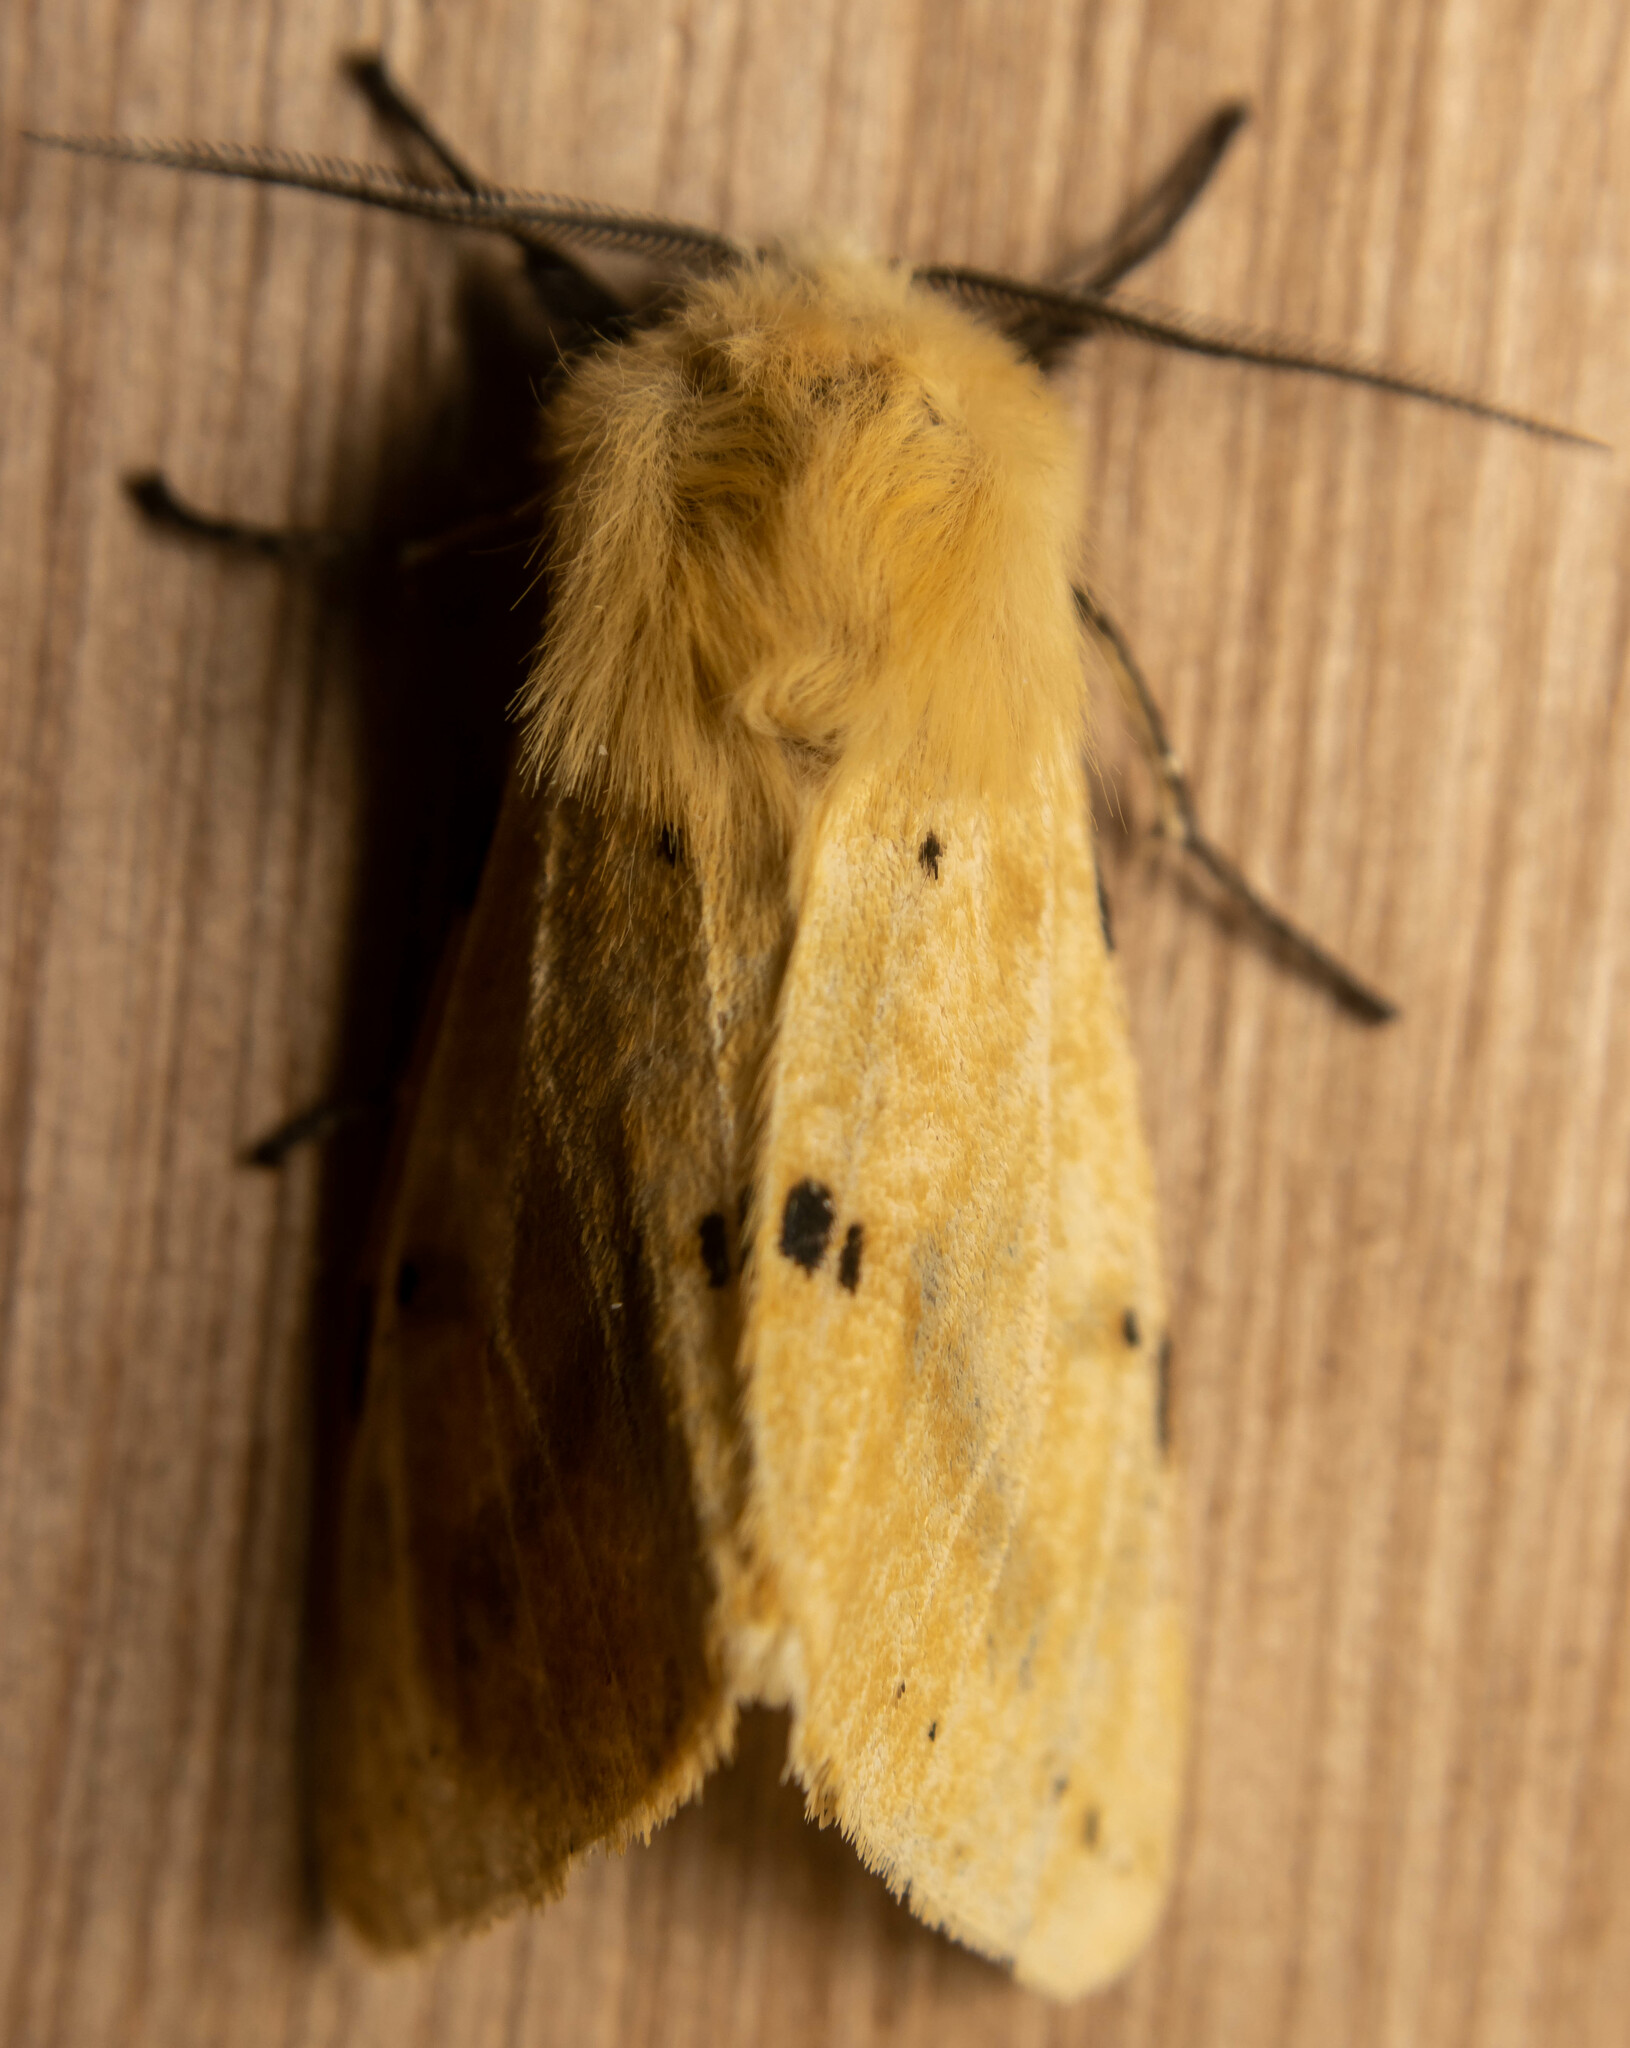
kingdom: Animalia
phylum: Arthropoda
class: Insecta
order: Lepidoptera
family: Erebidae
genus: Spilarctia
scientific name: Spilarctia lutea
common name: Buff ermine
